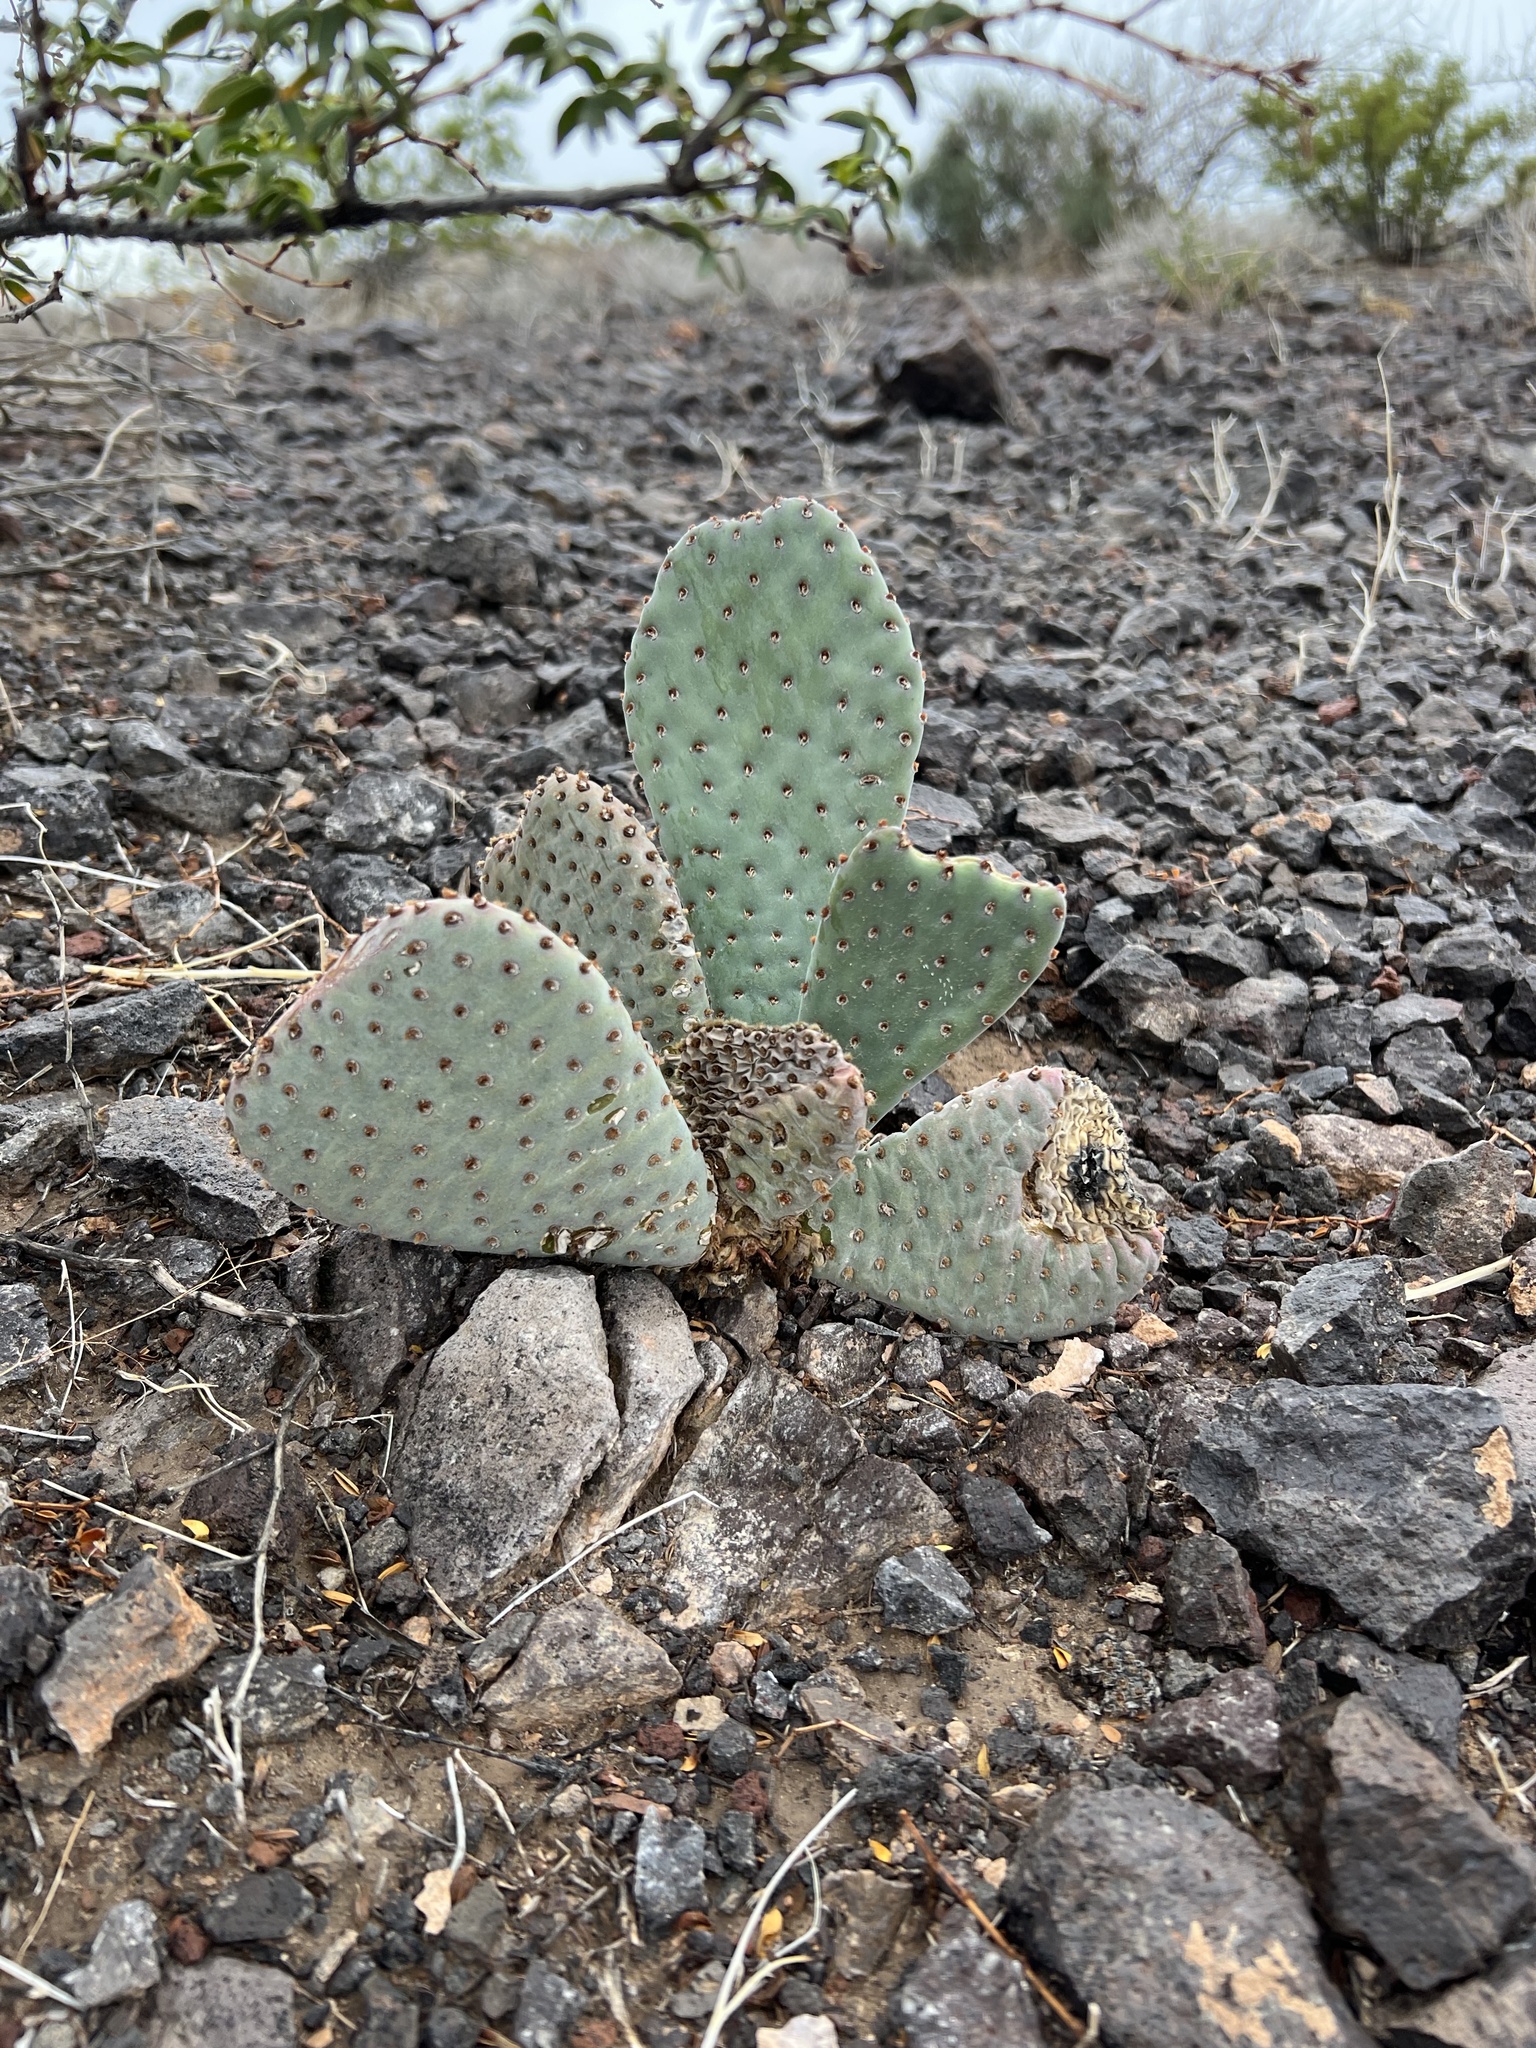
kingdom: Plantae
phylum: Tracheophyta
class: Magnoliopsida
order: Caryophyllales
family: Cactaceae
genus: Opuntia
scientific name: Opuntia basilaris
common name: Beavertail prickly-pear
